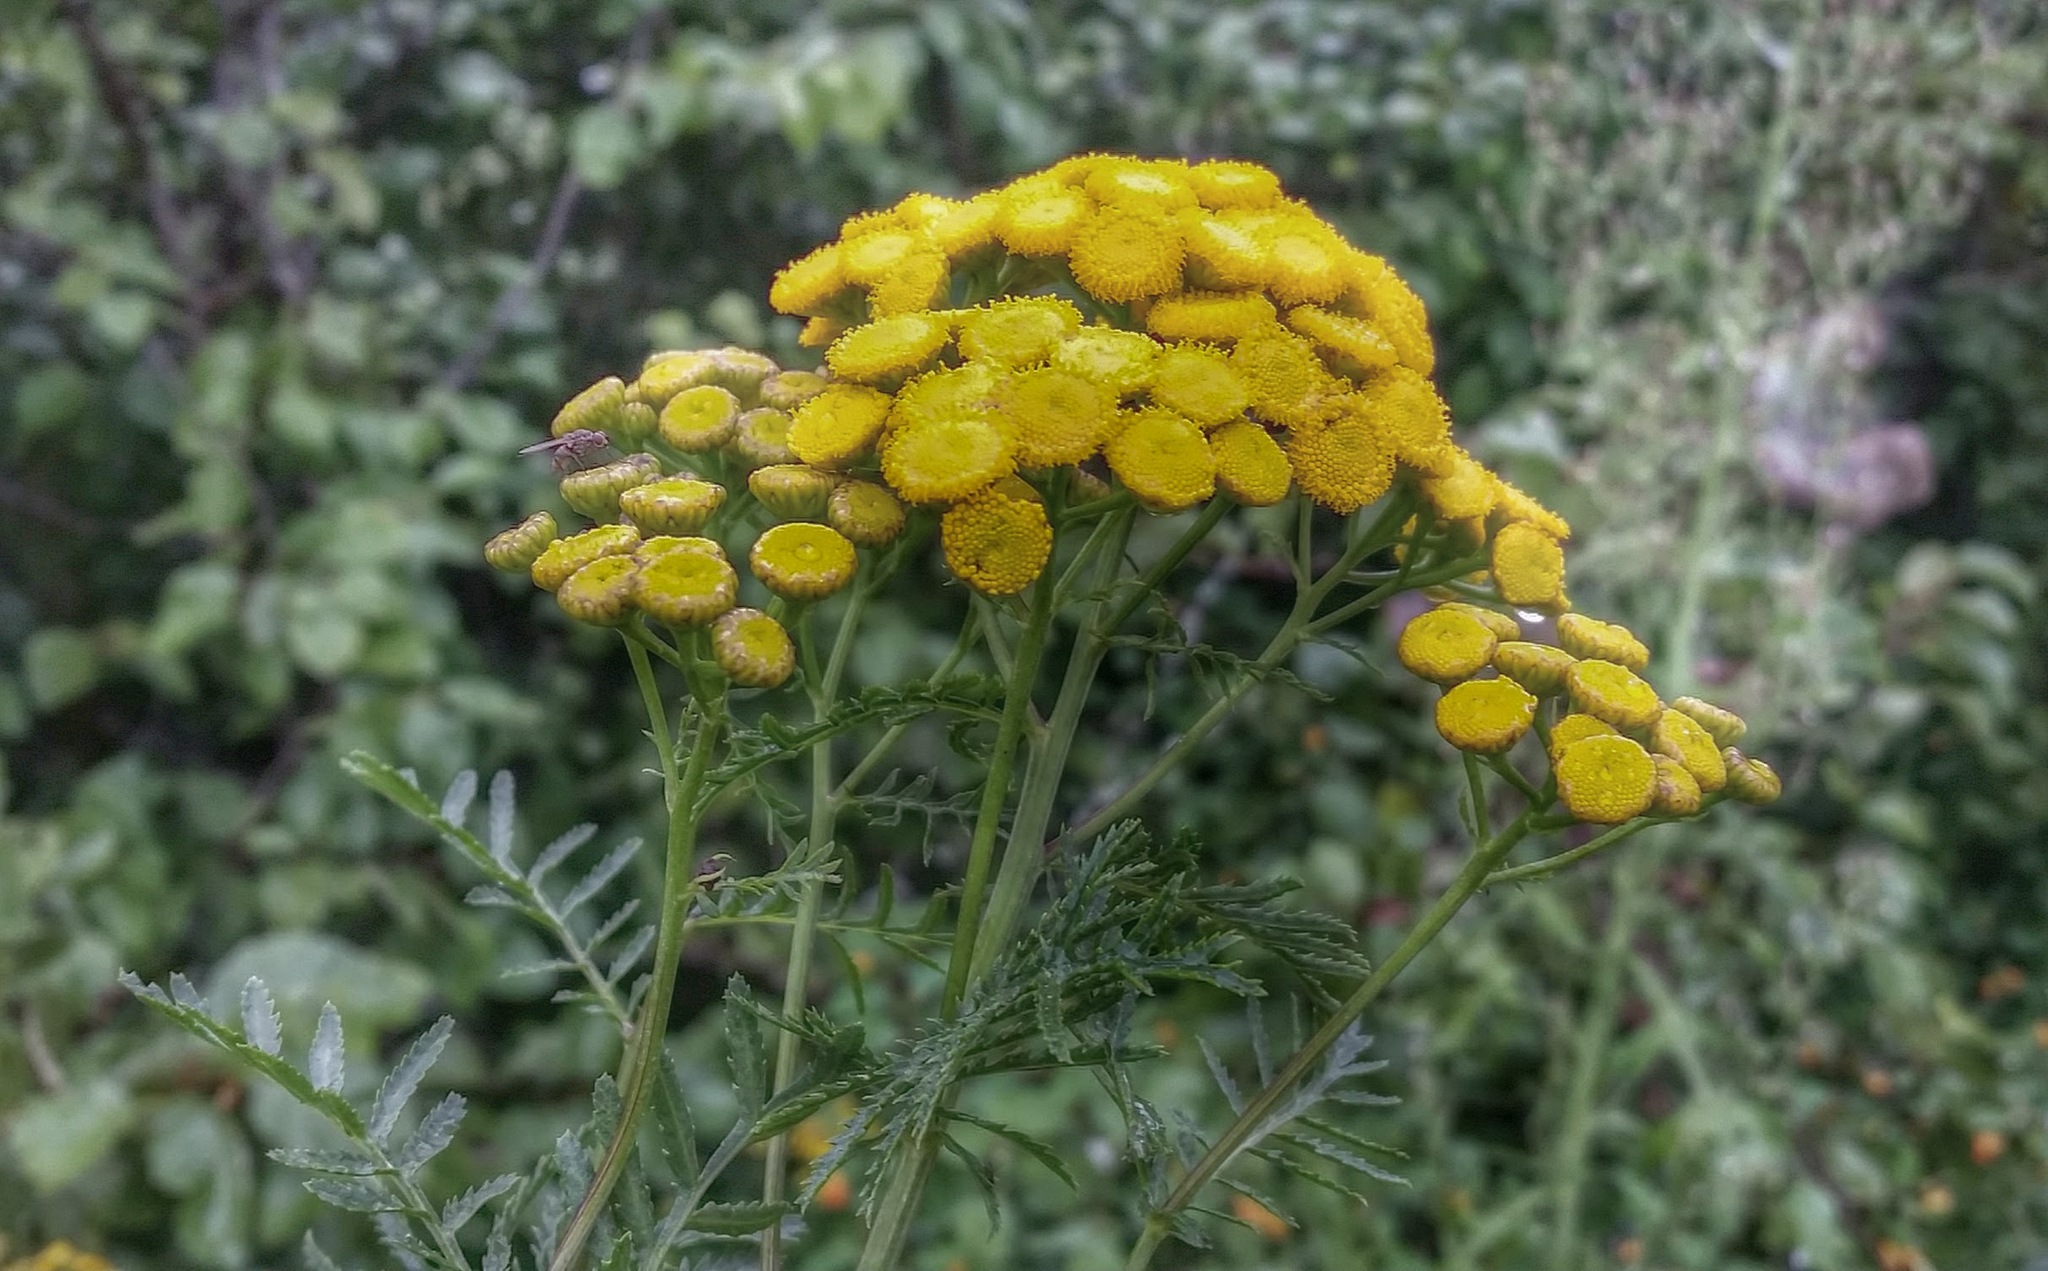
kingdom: Plantae
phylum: Tracheophyta
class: Magnoliopsida
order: Asterales
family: Asteraceae
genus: Tanacetum
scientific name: Tanacetum vulgare
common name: Common tansy
